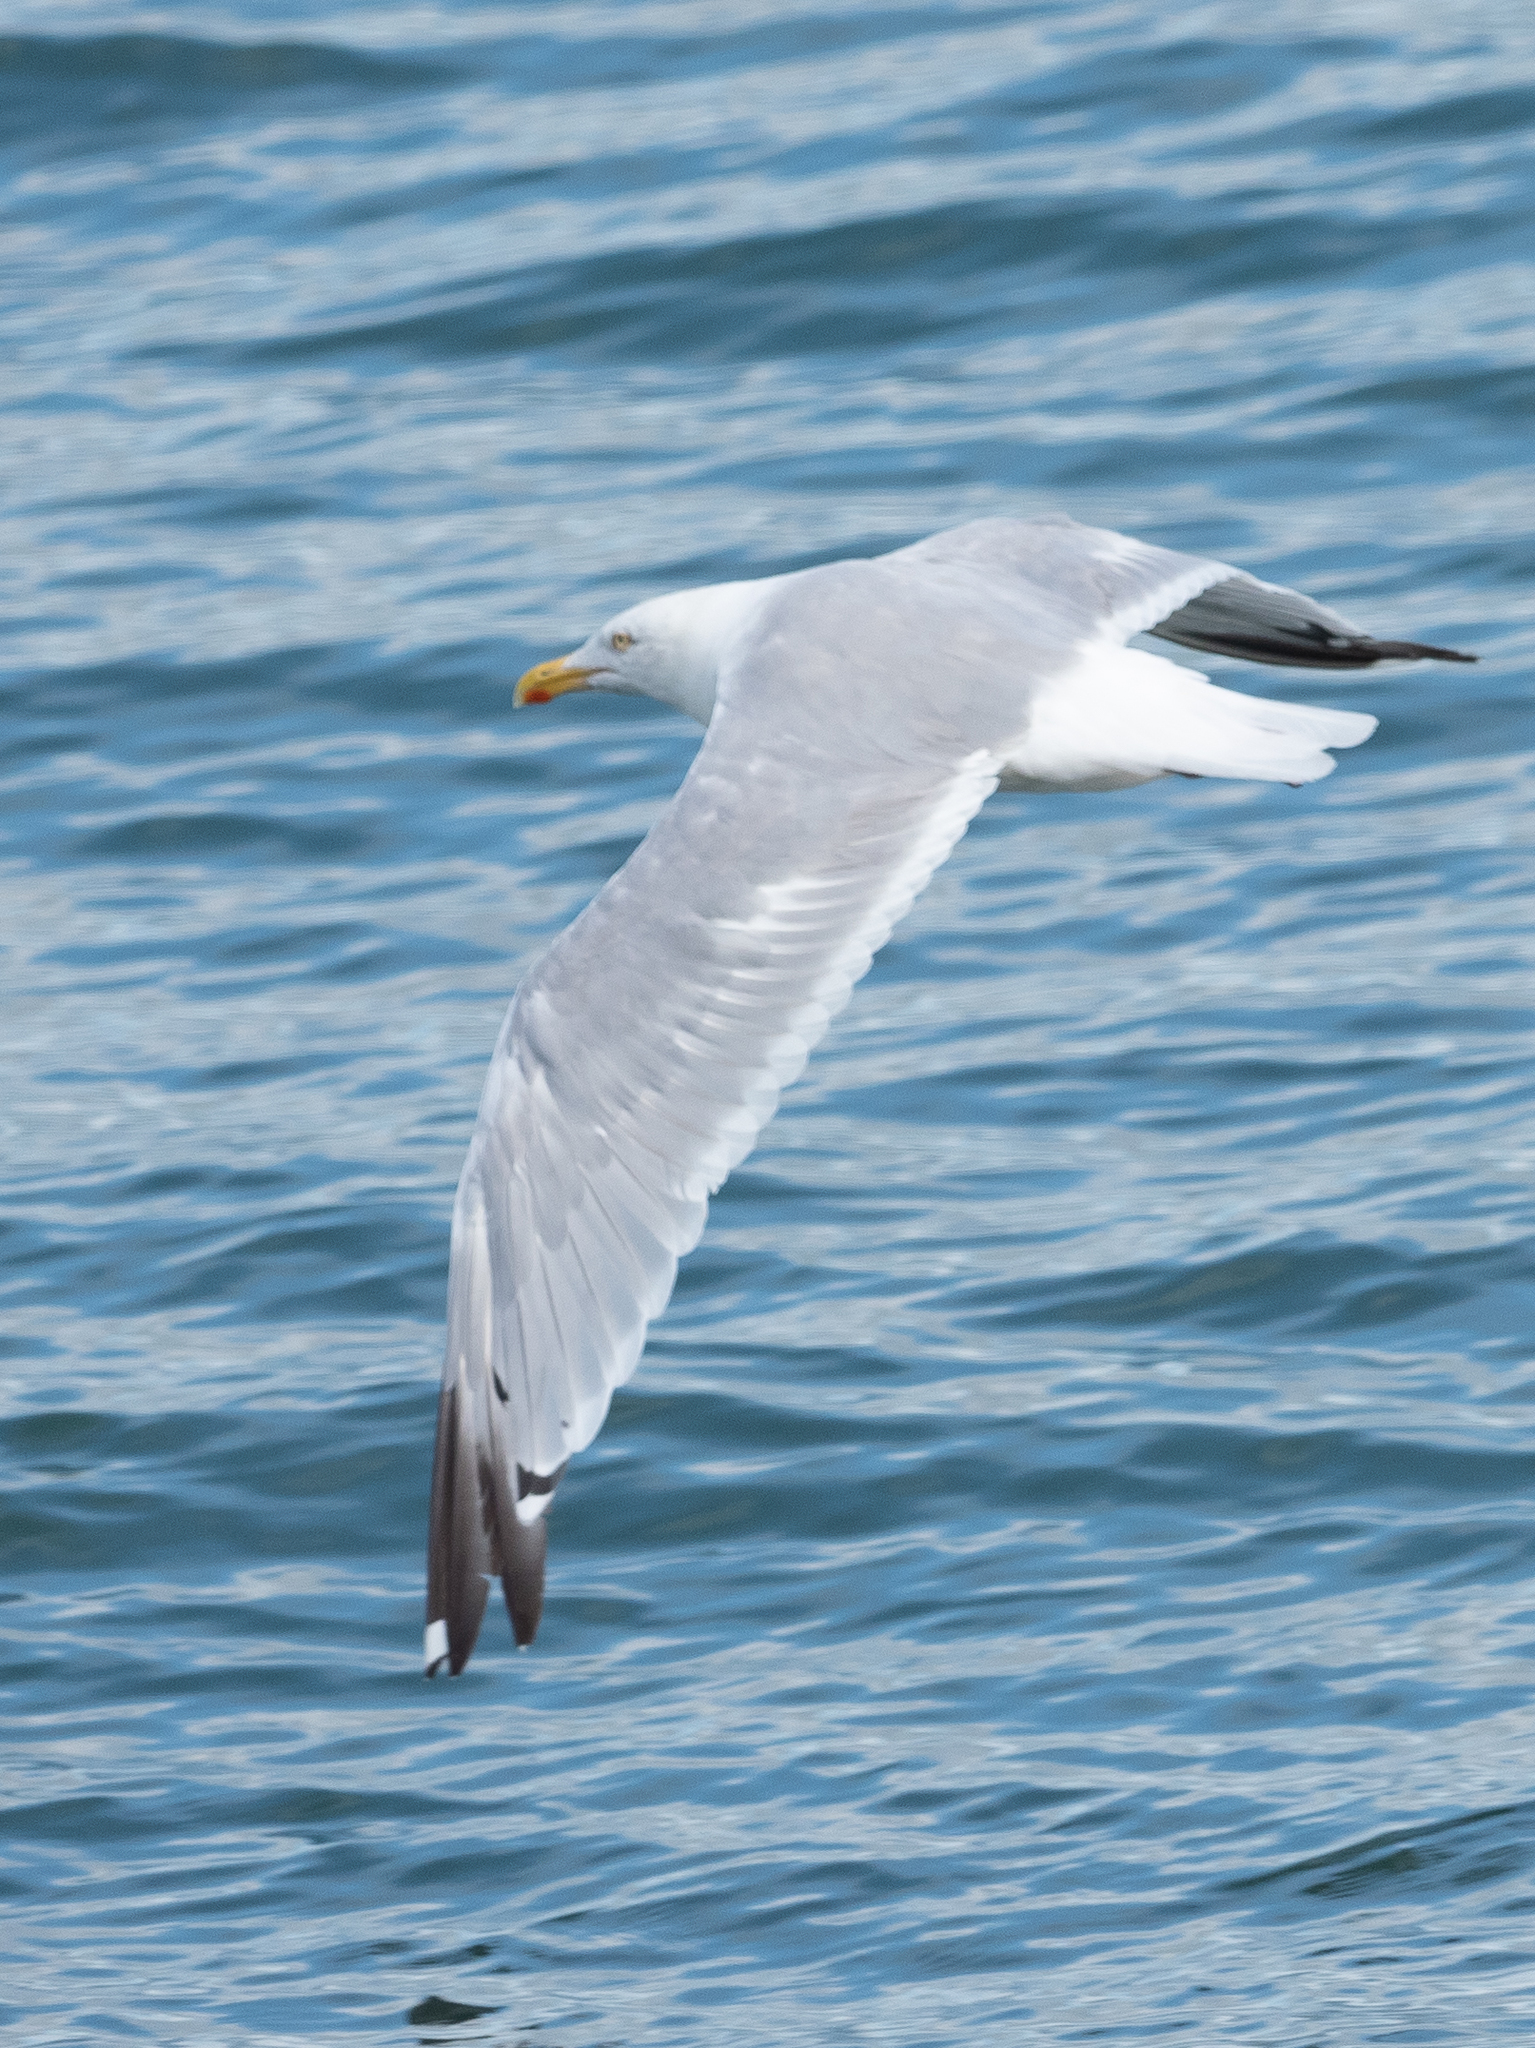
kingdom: Animalia
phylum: Chordata
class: Aves
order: Charadriiformes
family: Laridae
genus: Larus
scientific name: Larus argentatus
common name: Herring gull
